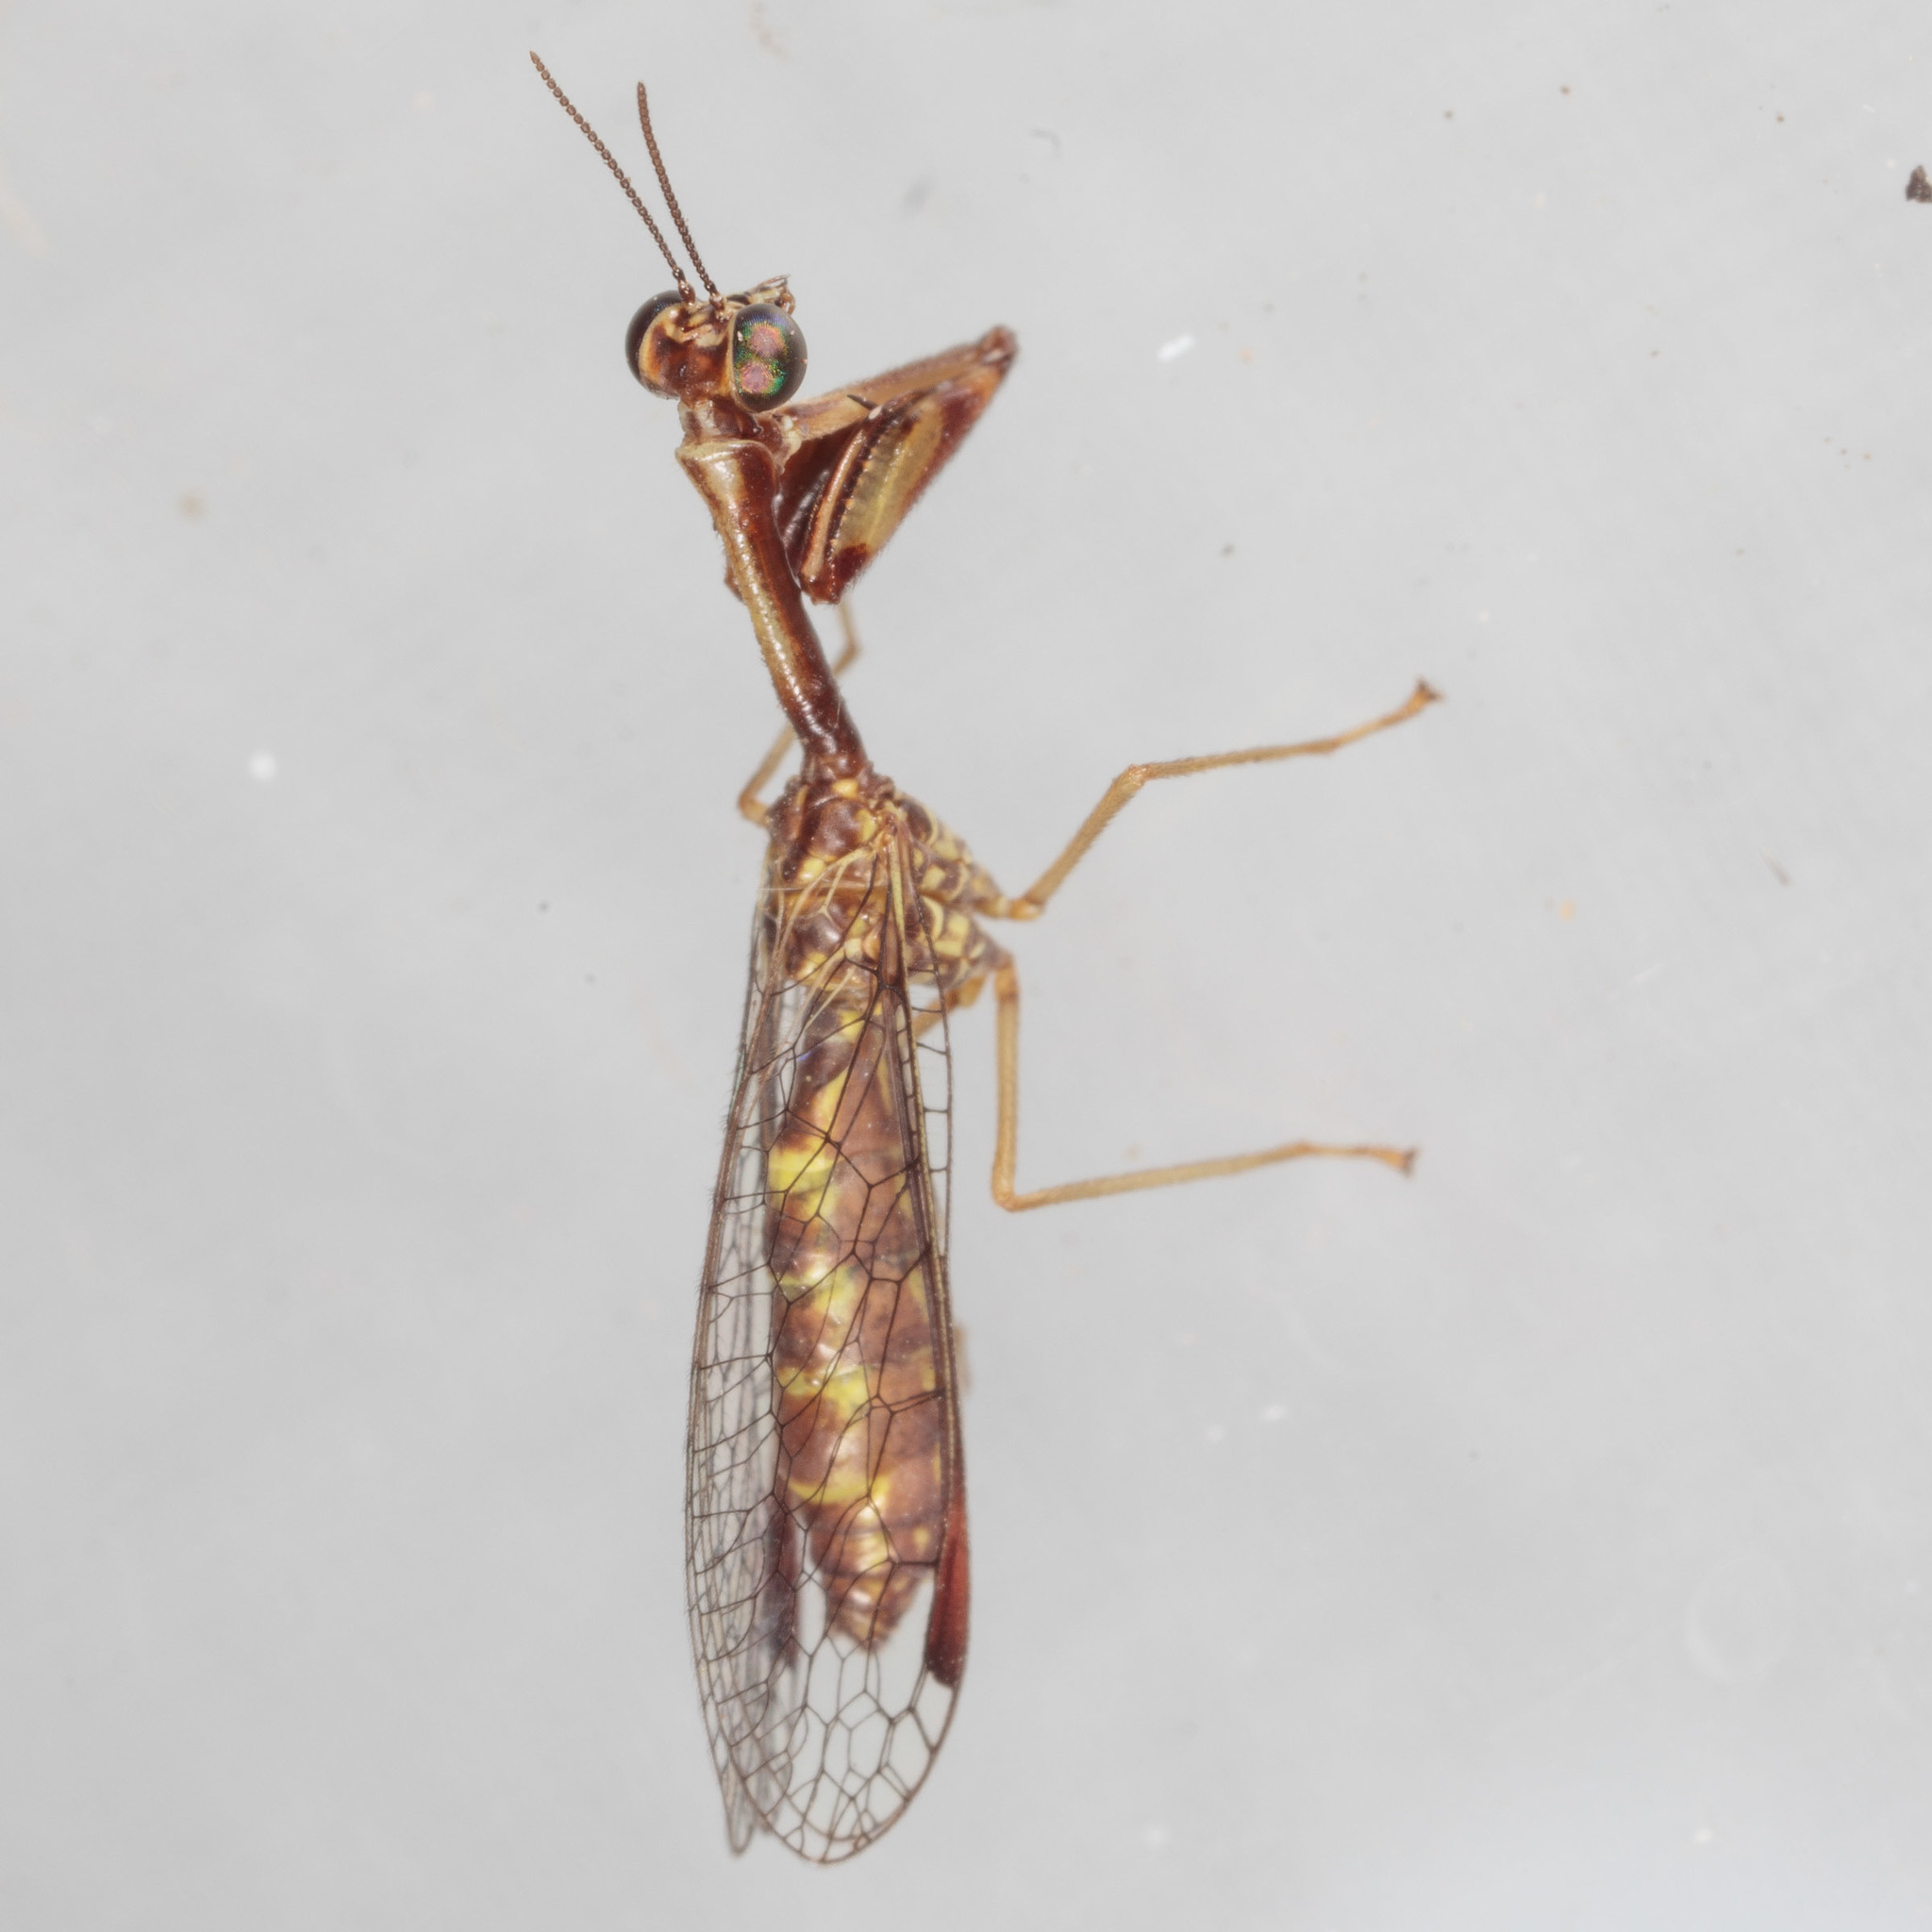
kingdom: Animalia
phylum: Arthropoda
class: Insecta
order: Neuroptera
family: Mantispidae
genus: Dicromantispa
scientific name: Dicromantispa sayi
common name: Say's mantidfly
